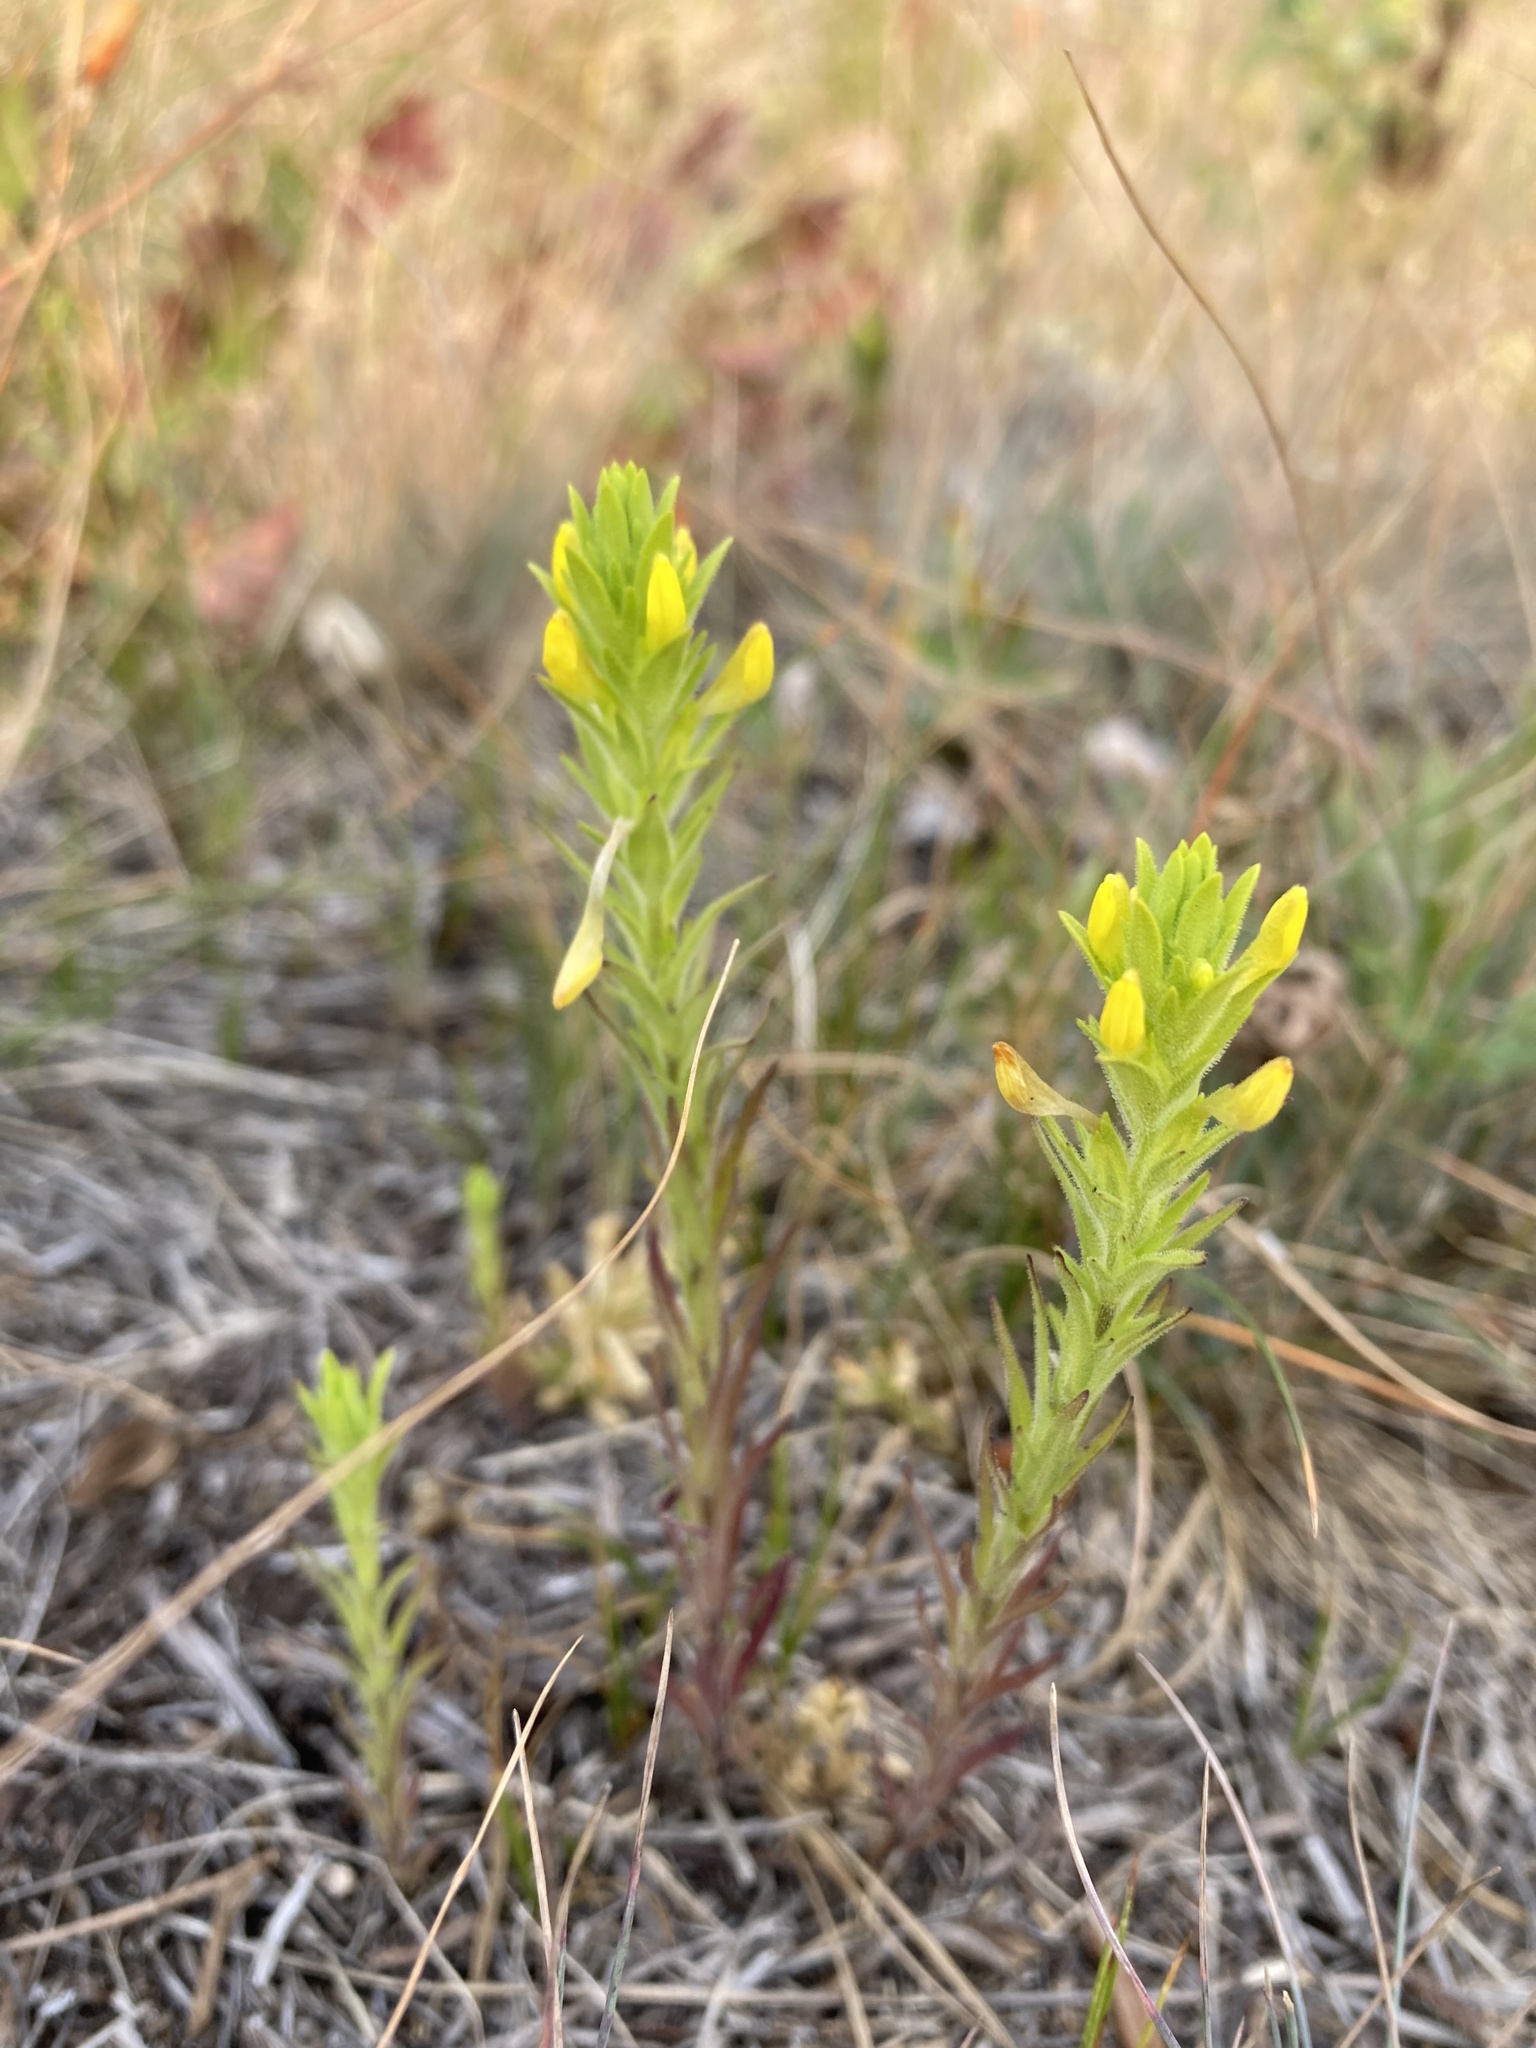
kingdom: Plantae
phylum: Tracheophyta
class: Magnoliopsida
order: Lamiales
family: Orobanchaceae
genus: Orthocarpus
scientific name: Orthocarpus luteus
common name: Golden-tongue owl's-clover
